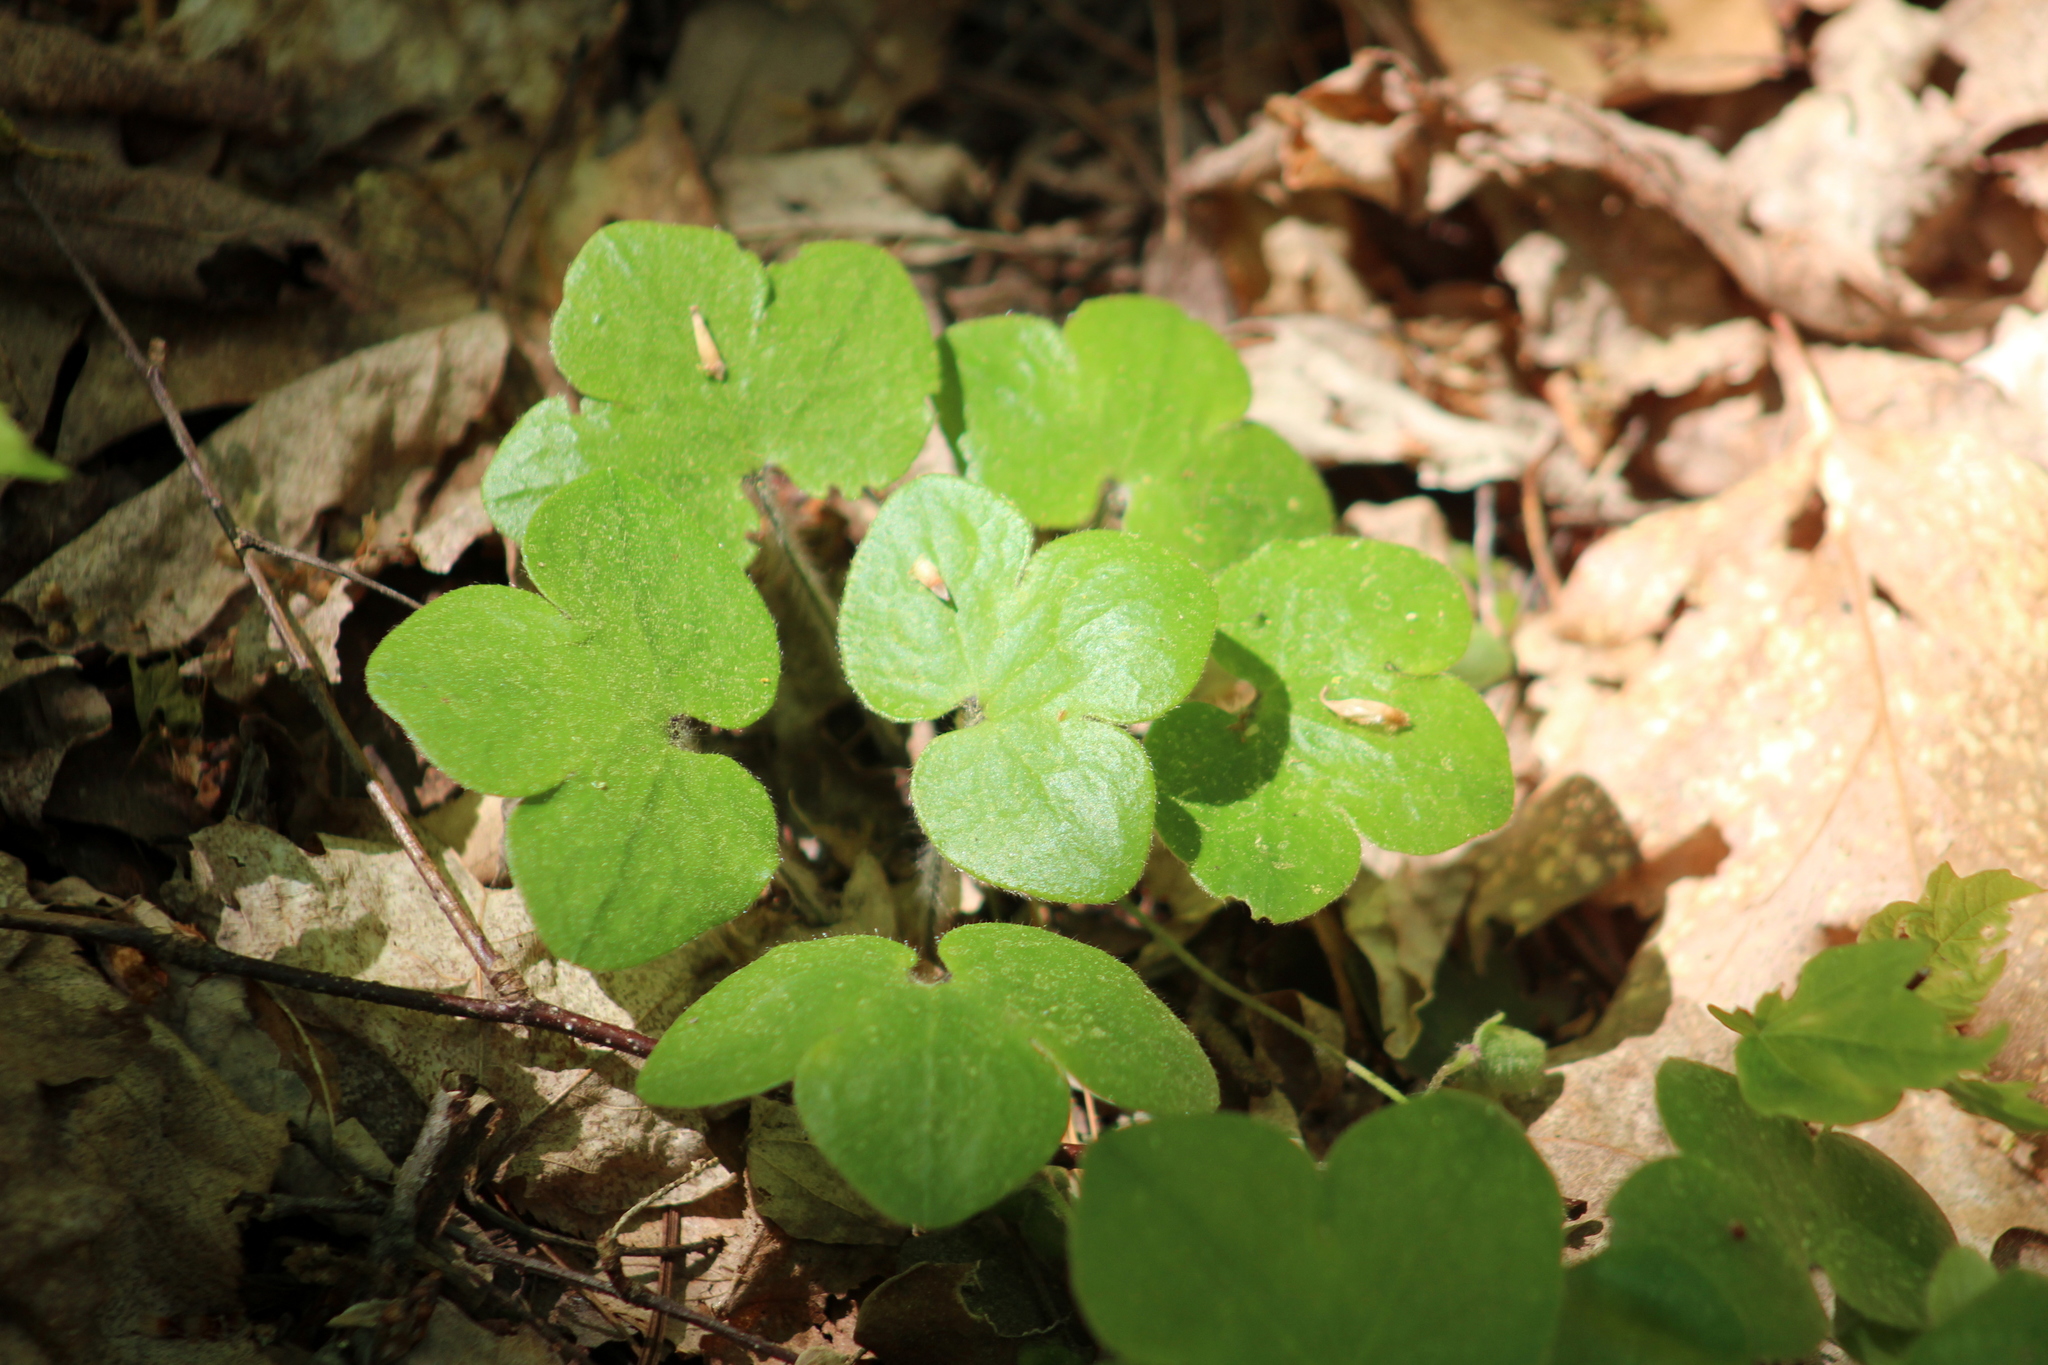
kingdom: Plantae
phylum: Tracheophyta
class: Magnoliopsida
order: Ranunculales
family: Ranunculaceae
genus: Hepatica
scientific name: Hepatica americana
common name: American hepatica
